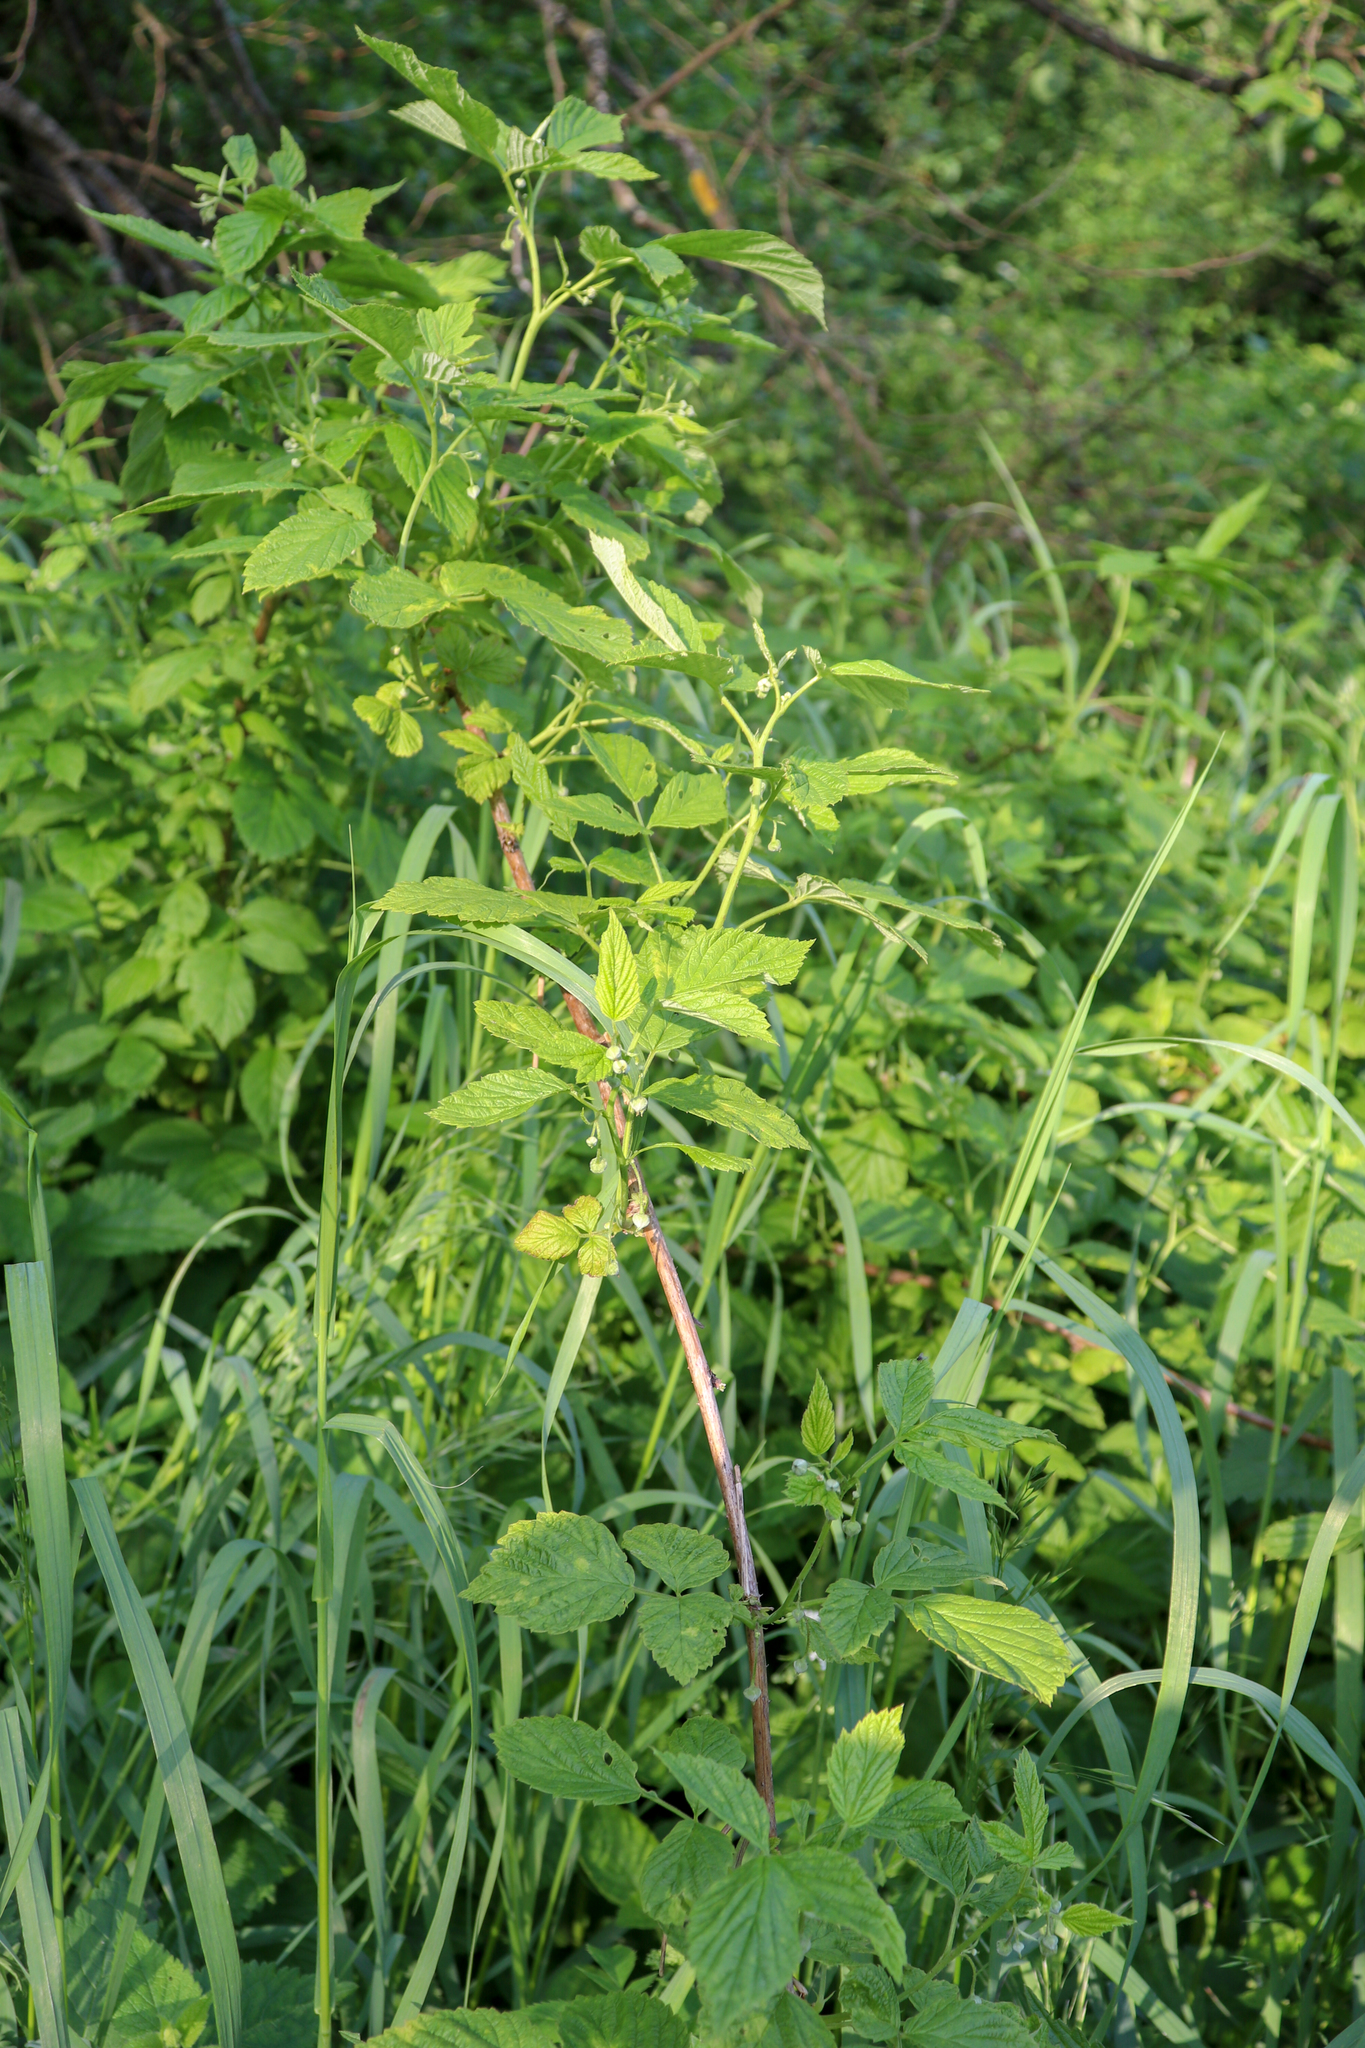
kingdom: Plantae
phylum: Tracheophyta
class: Magnoliopsida
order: Rosales
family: Rosaceae
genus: Rubus
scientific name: Rubus idaeus
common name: Raspberry
